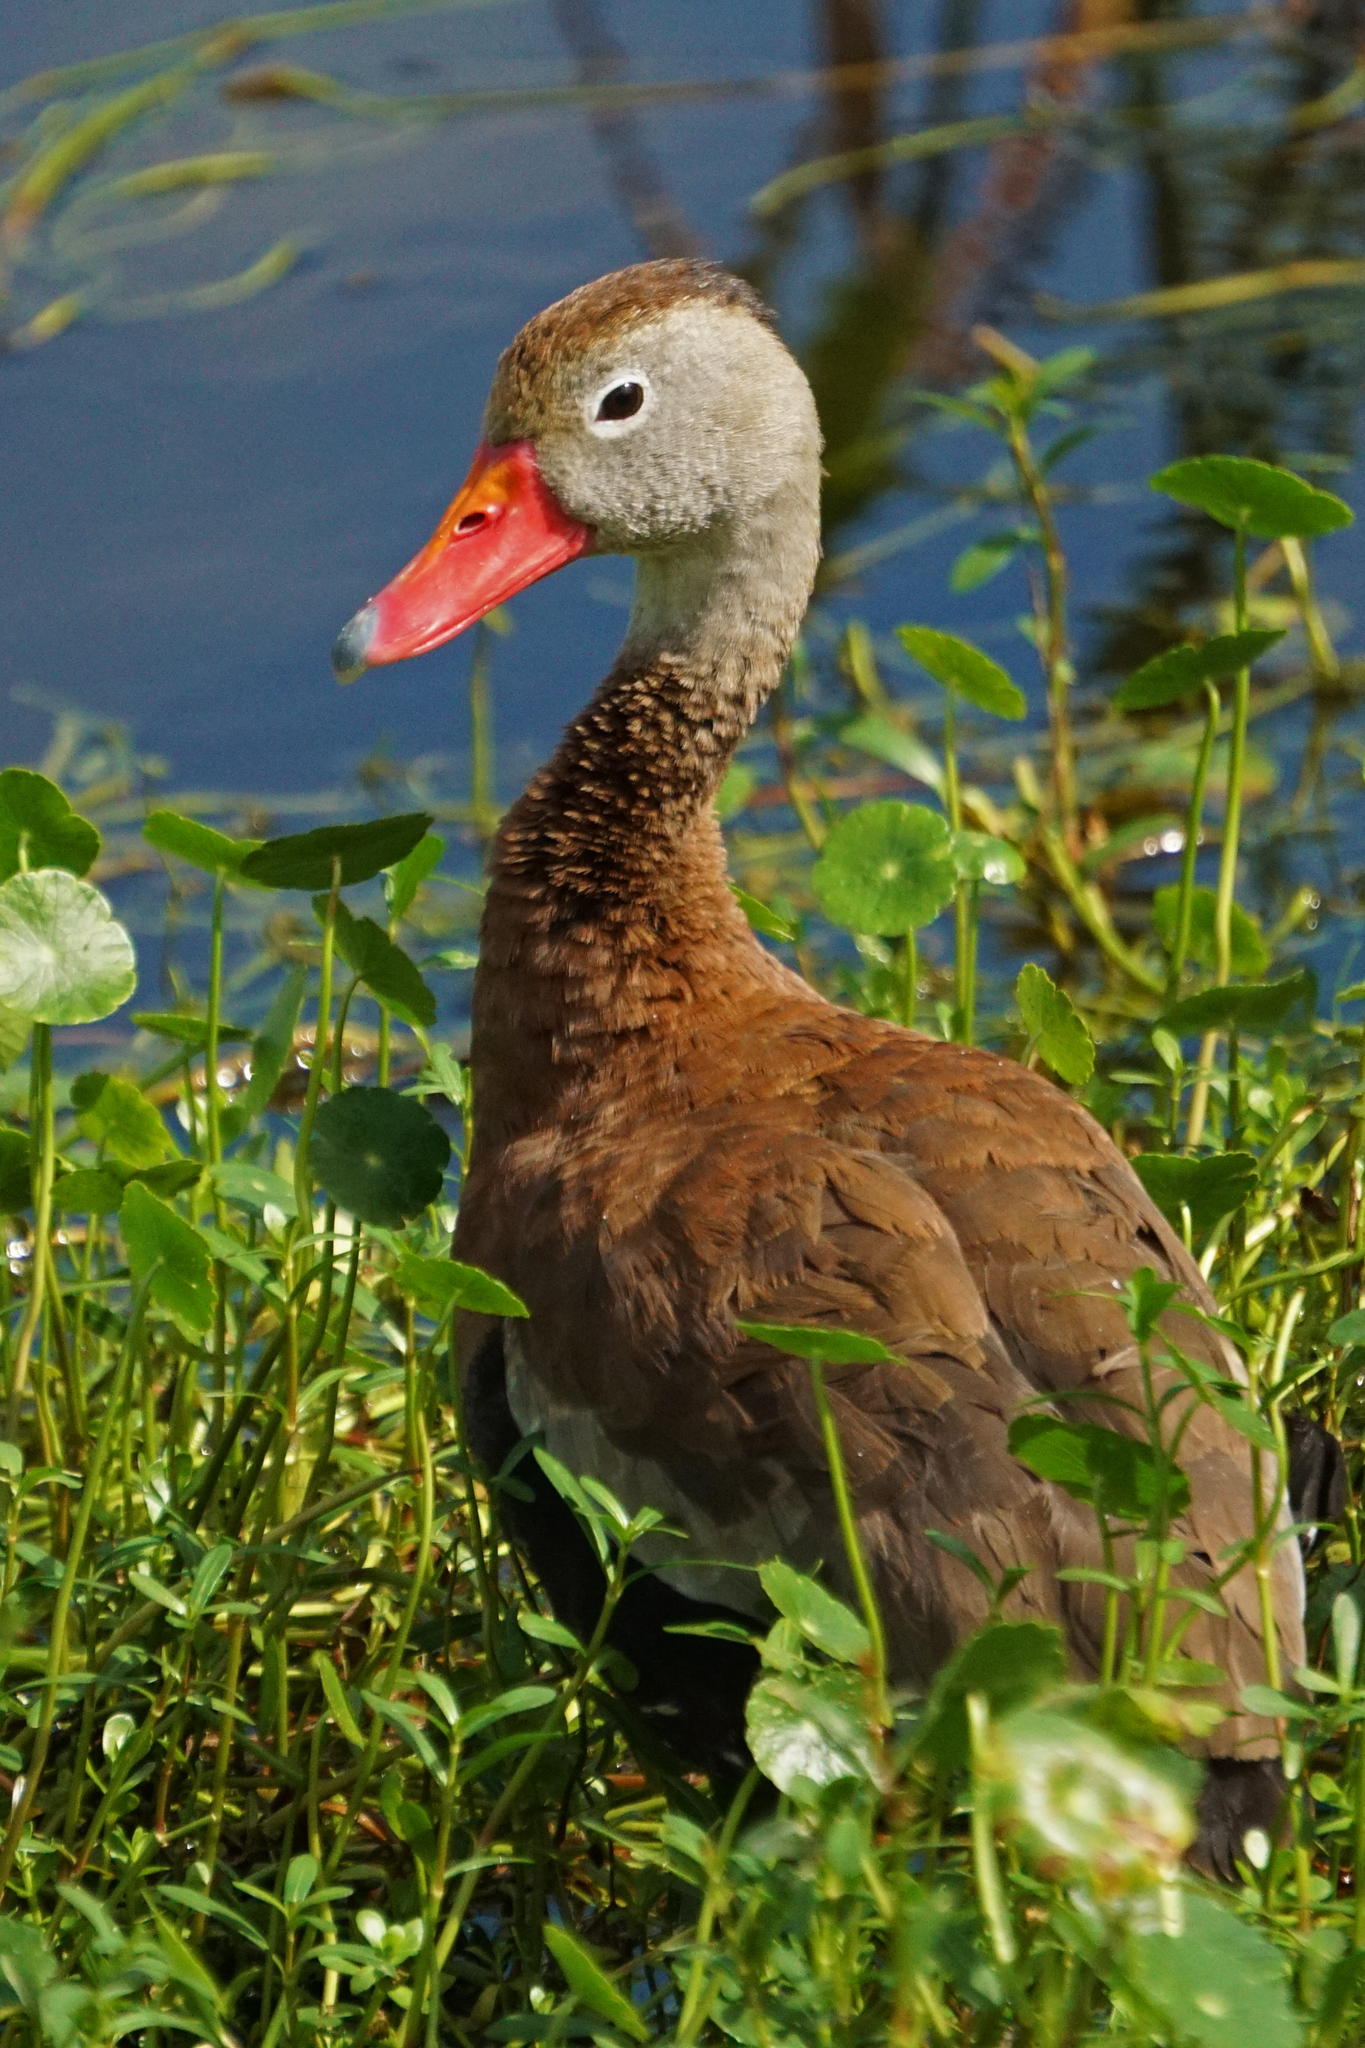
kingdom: Animalia
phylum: Chordata
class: Aves
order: Anseriformes
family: Anatidae
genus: Dendrocygna
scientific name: Dendrocygna autumnalis
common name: Black-bellied whistling duck
